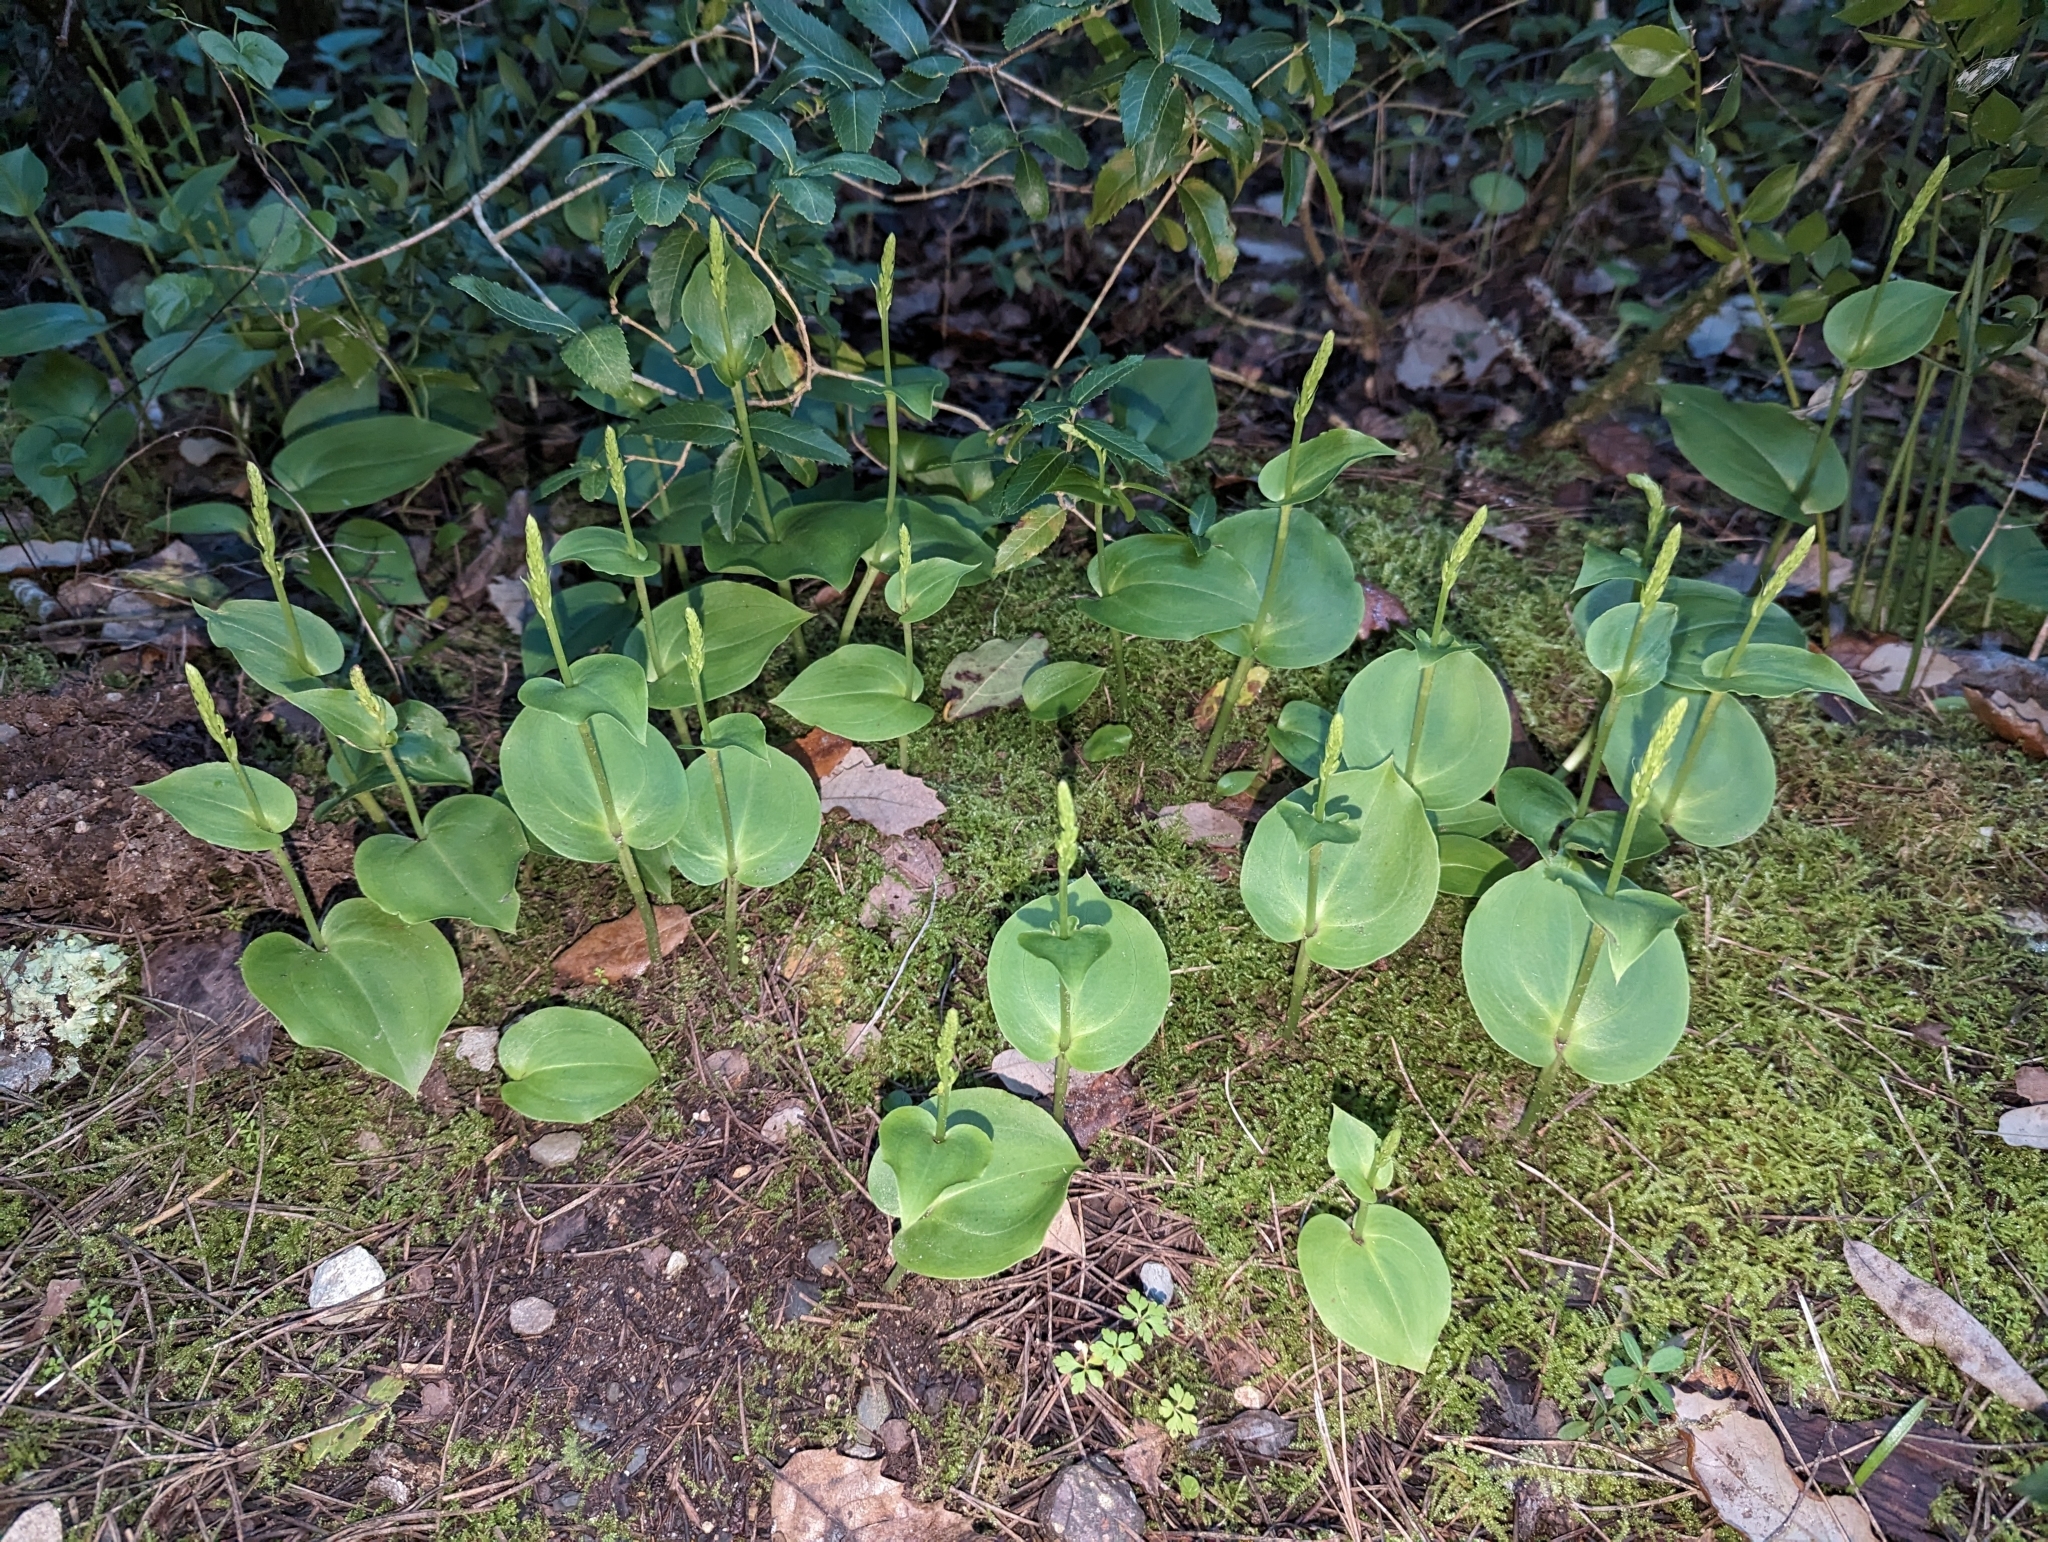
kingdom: Plantae
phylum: Tracheophyta
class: Liliopsida
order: Asparagales
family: Orchidaceae
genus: Gennaria
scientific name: Gennaria diphylla
